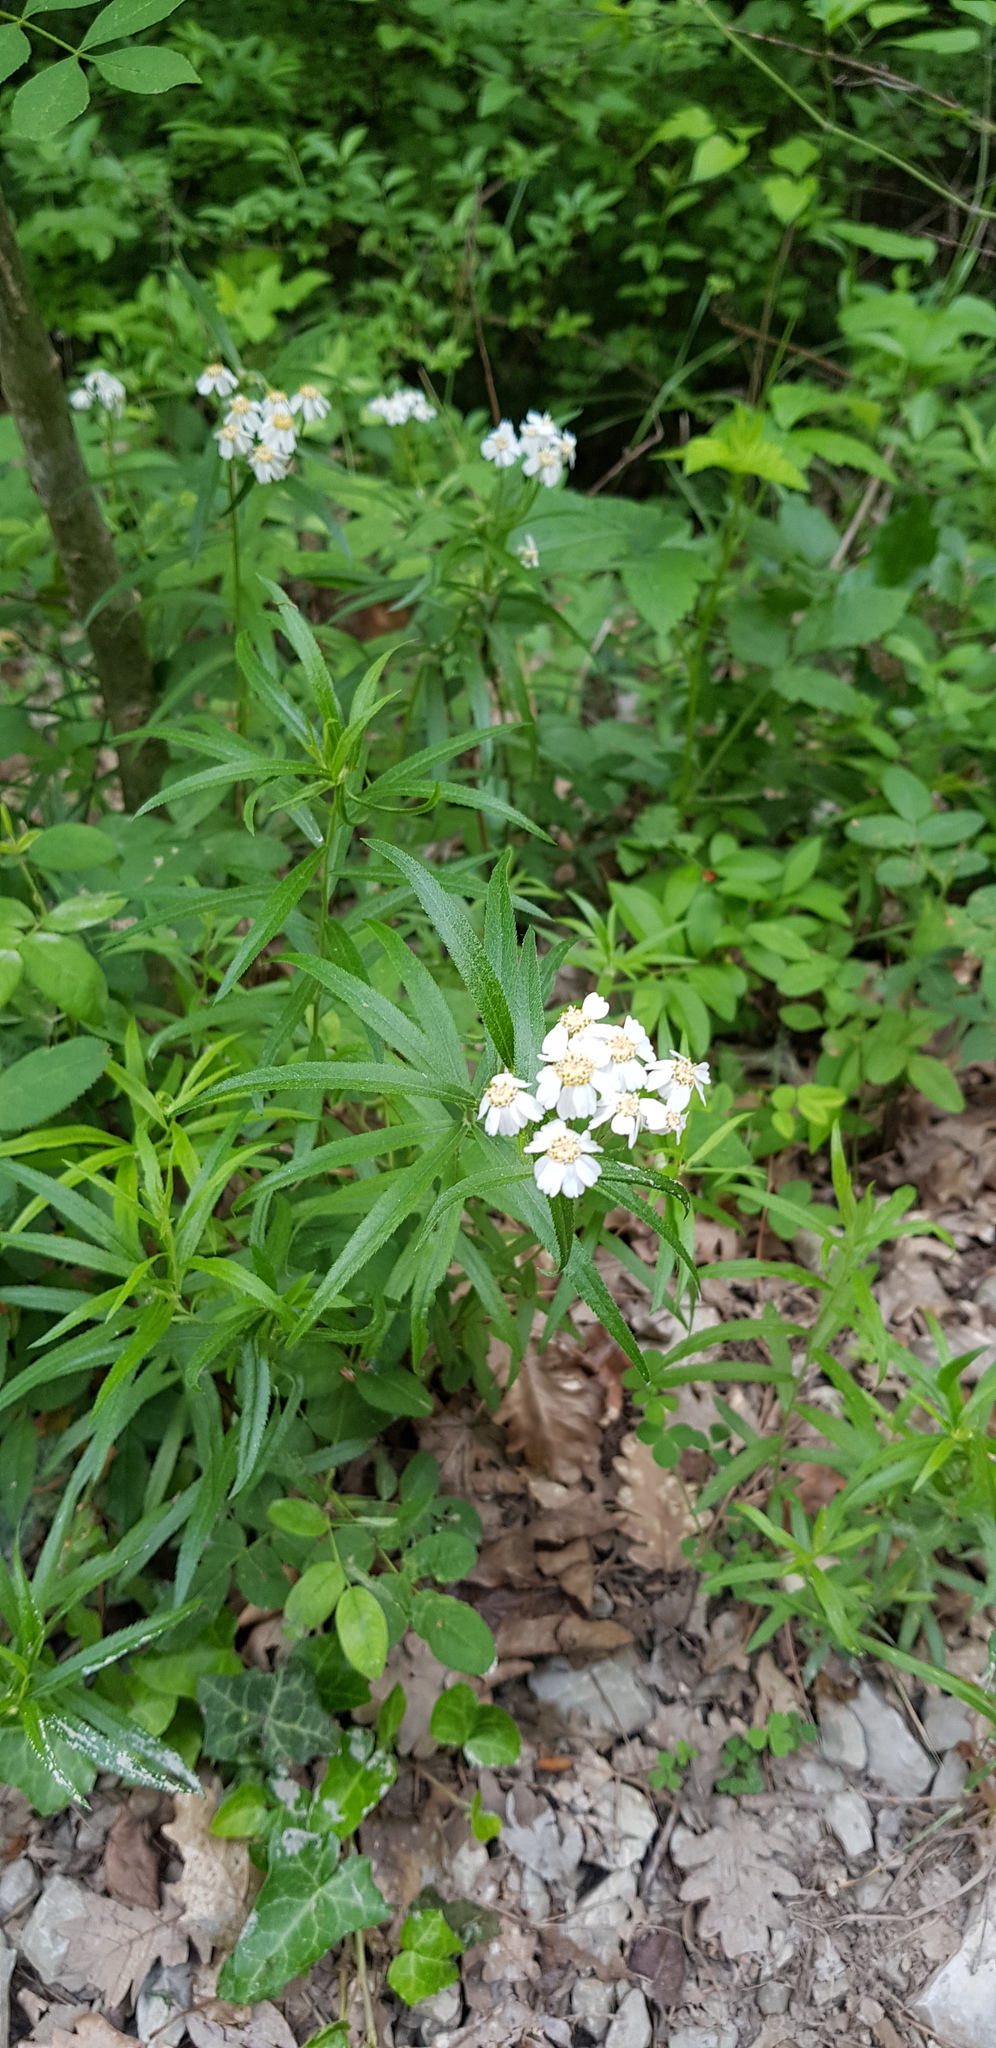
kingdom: Plantae
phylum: Tracheophyta
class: Magnoliopsida
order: Asterales
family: Asteraceae
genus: Achillea
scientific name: Achillea biserrata
